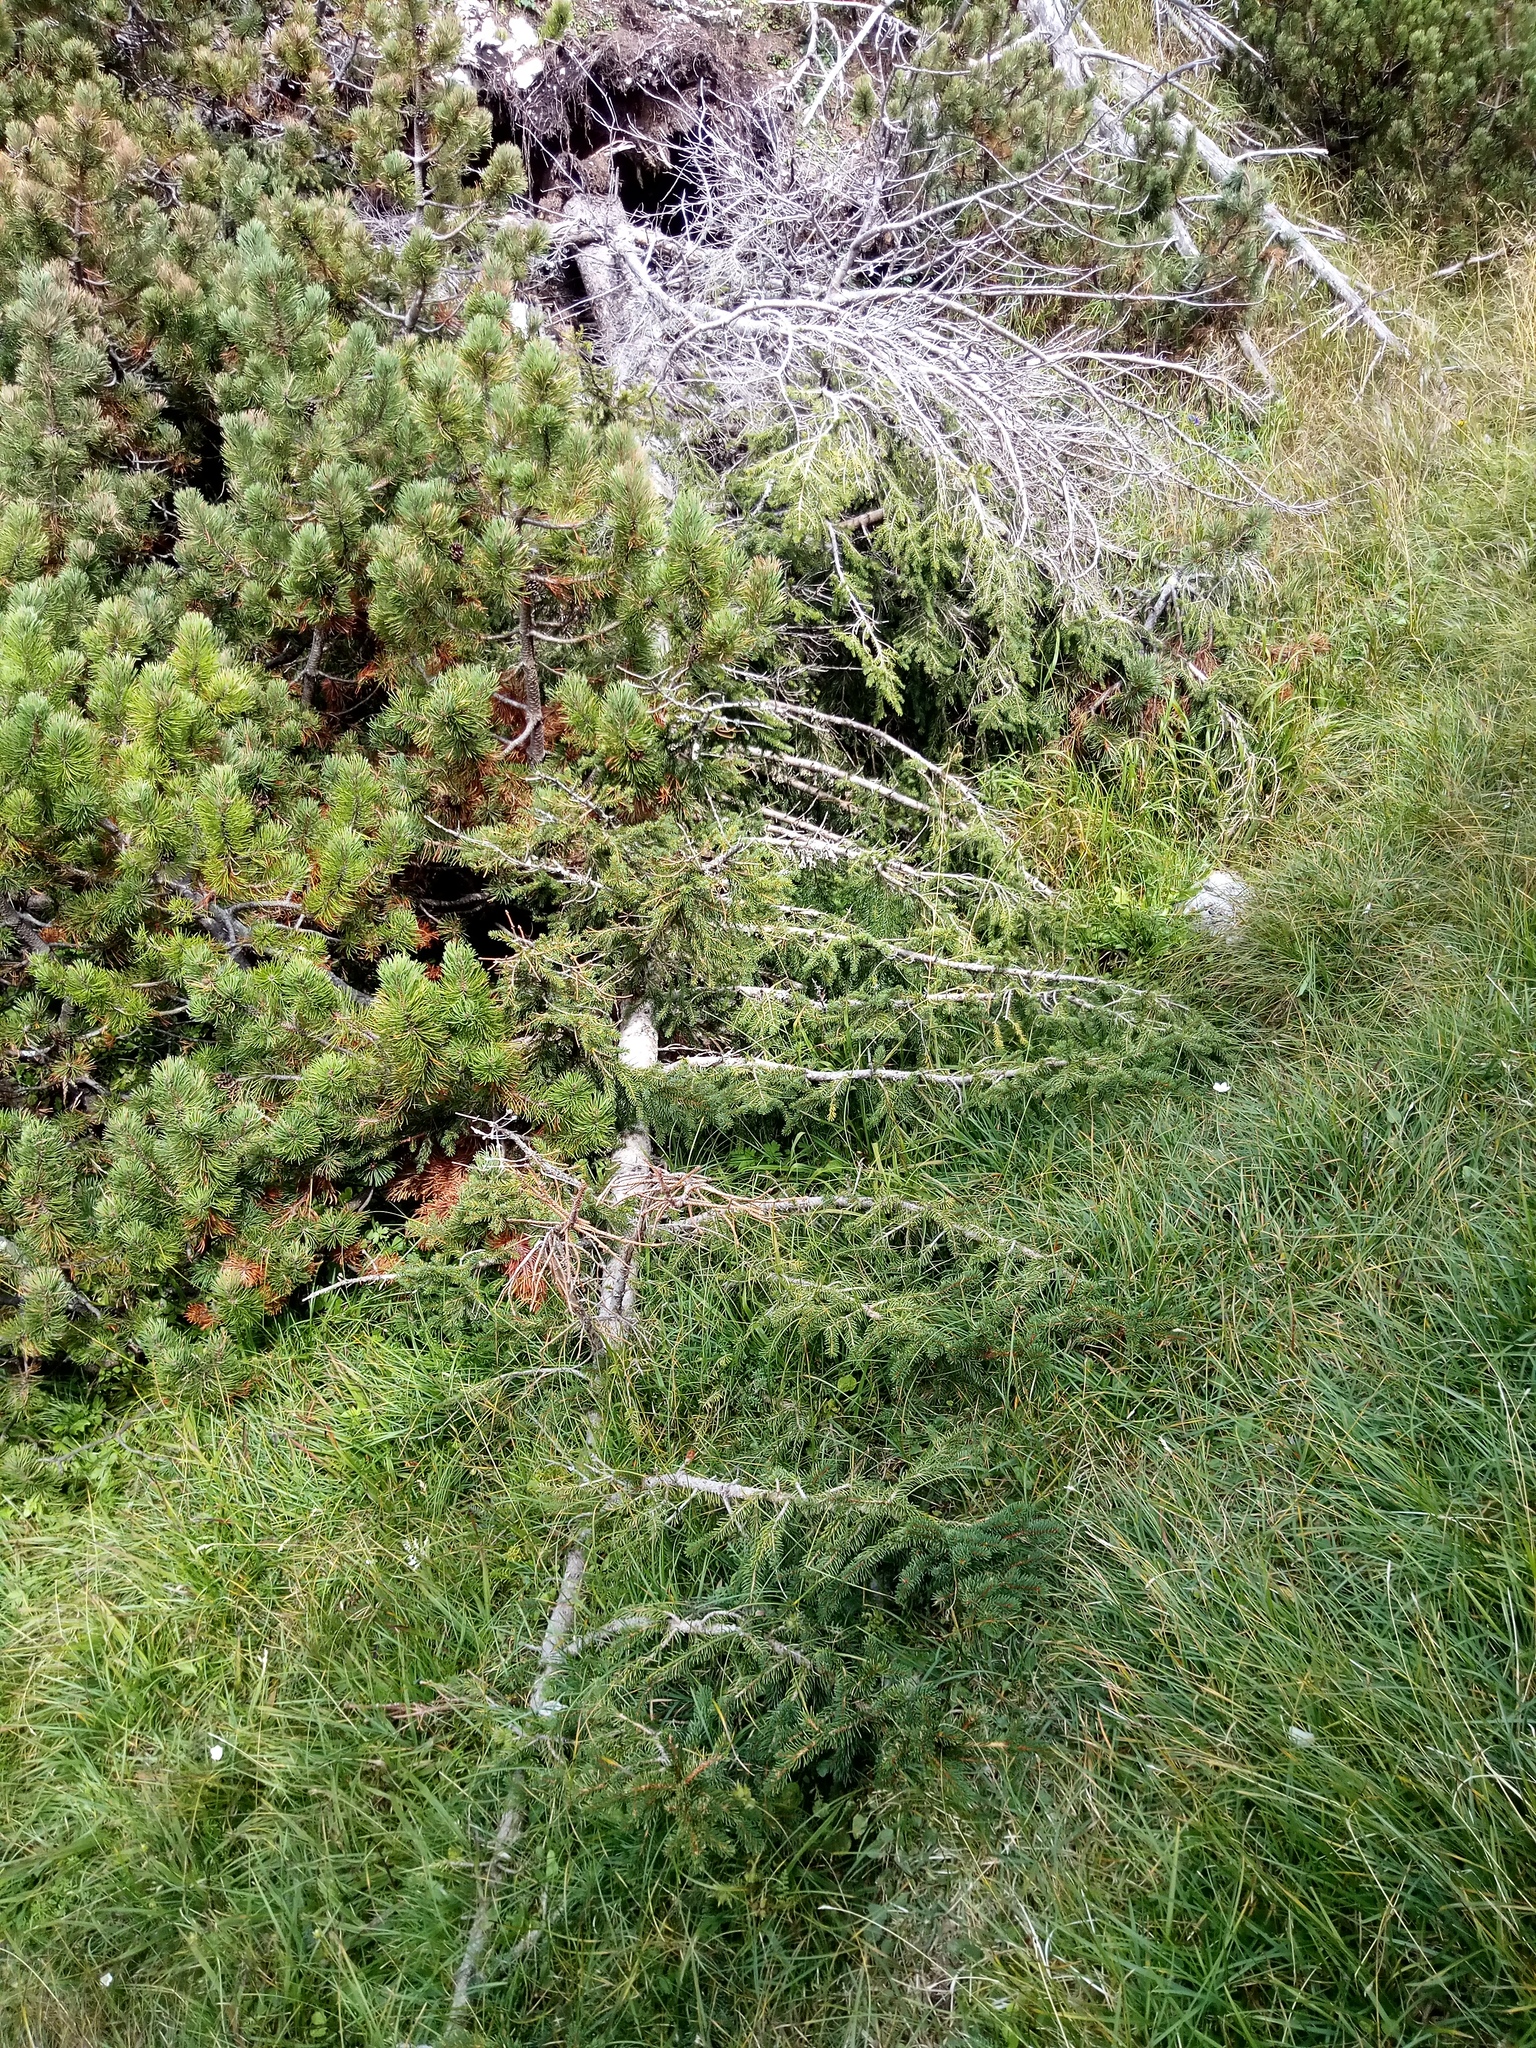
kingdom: Plantae
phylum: Tracheophyta
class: Pinopsida
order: Pinales
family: Pinaceae
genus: Picea
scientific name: Picea abies
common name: Norway spruce
